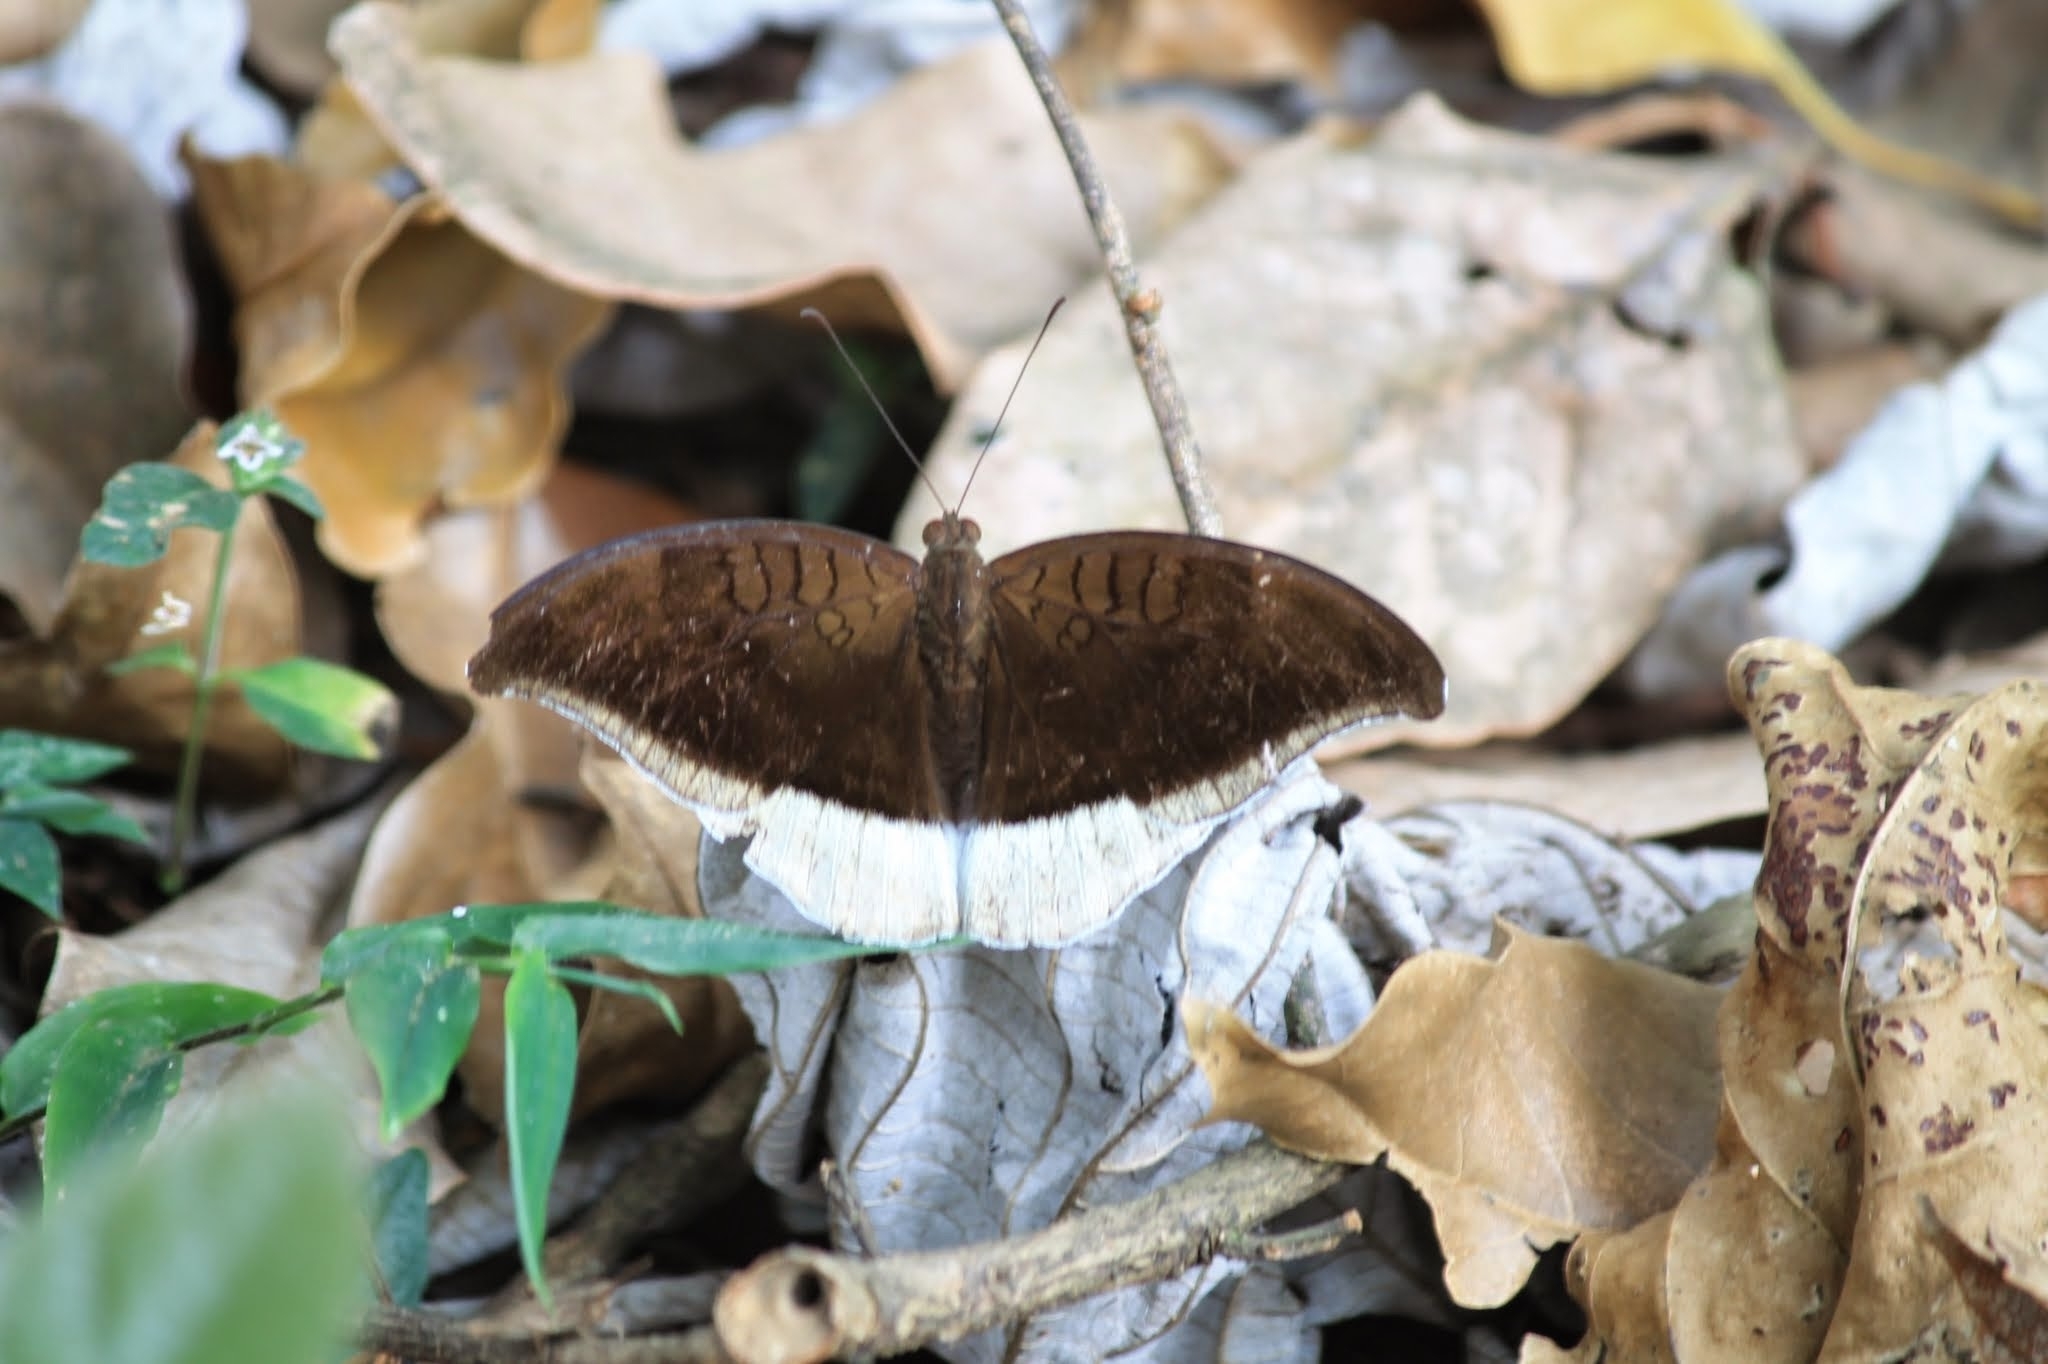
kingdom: Animalia
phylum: Arthropoda
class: Insecta
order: Lepidoptera
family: Nymphalidae
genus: Tanaecia
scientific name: Tanaecia lepidea
